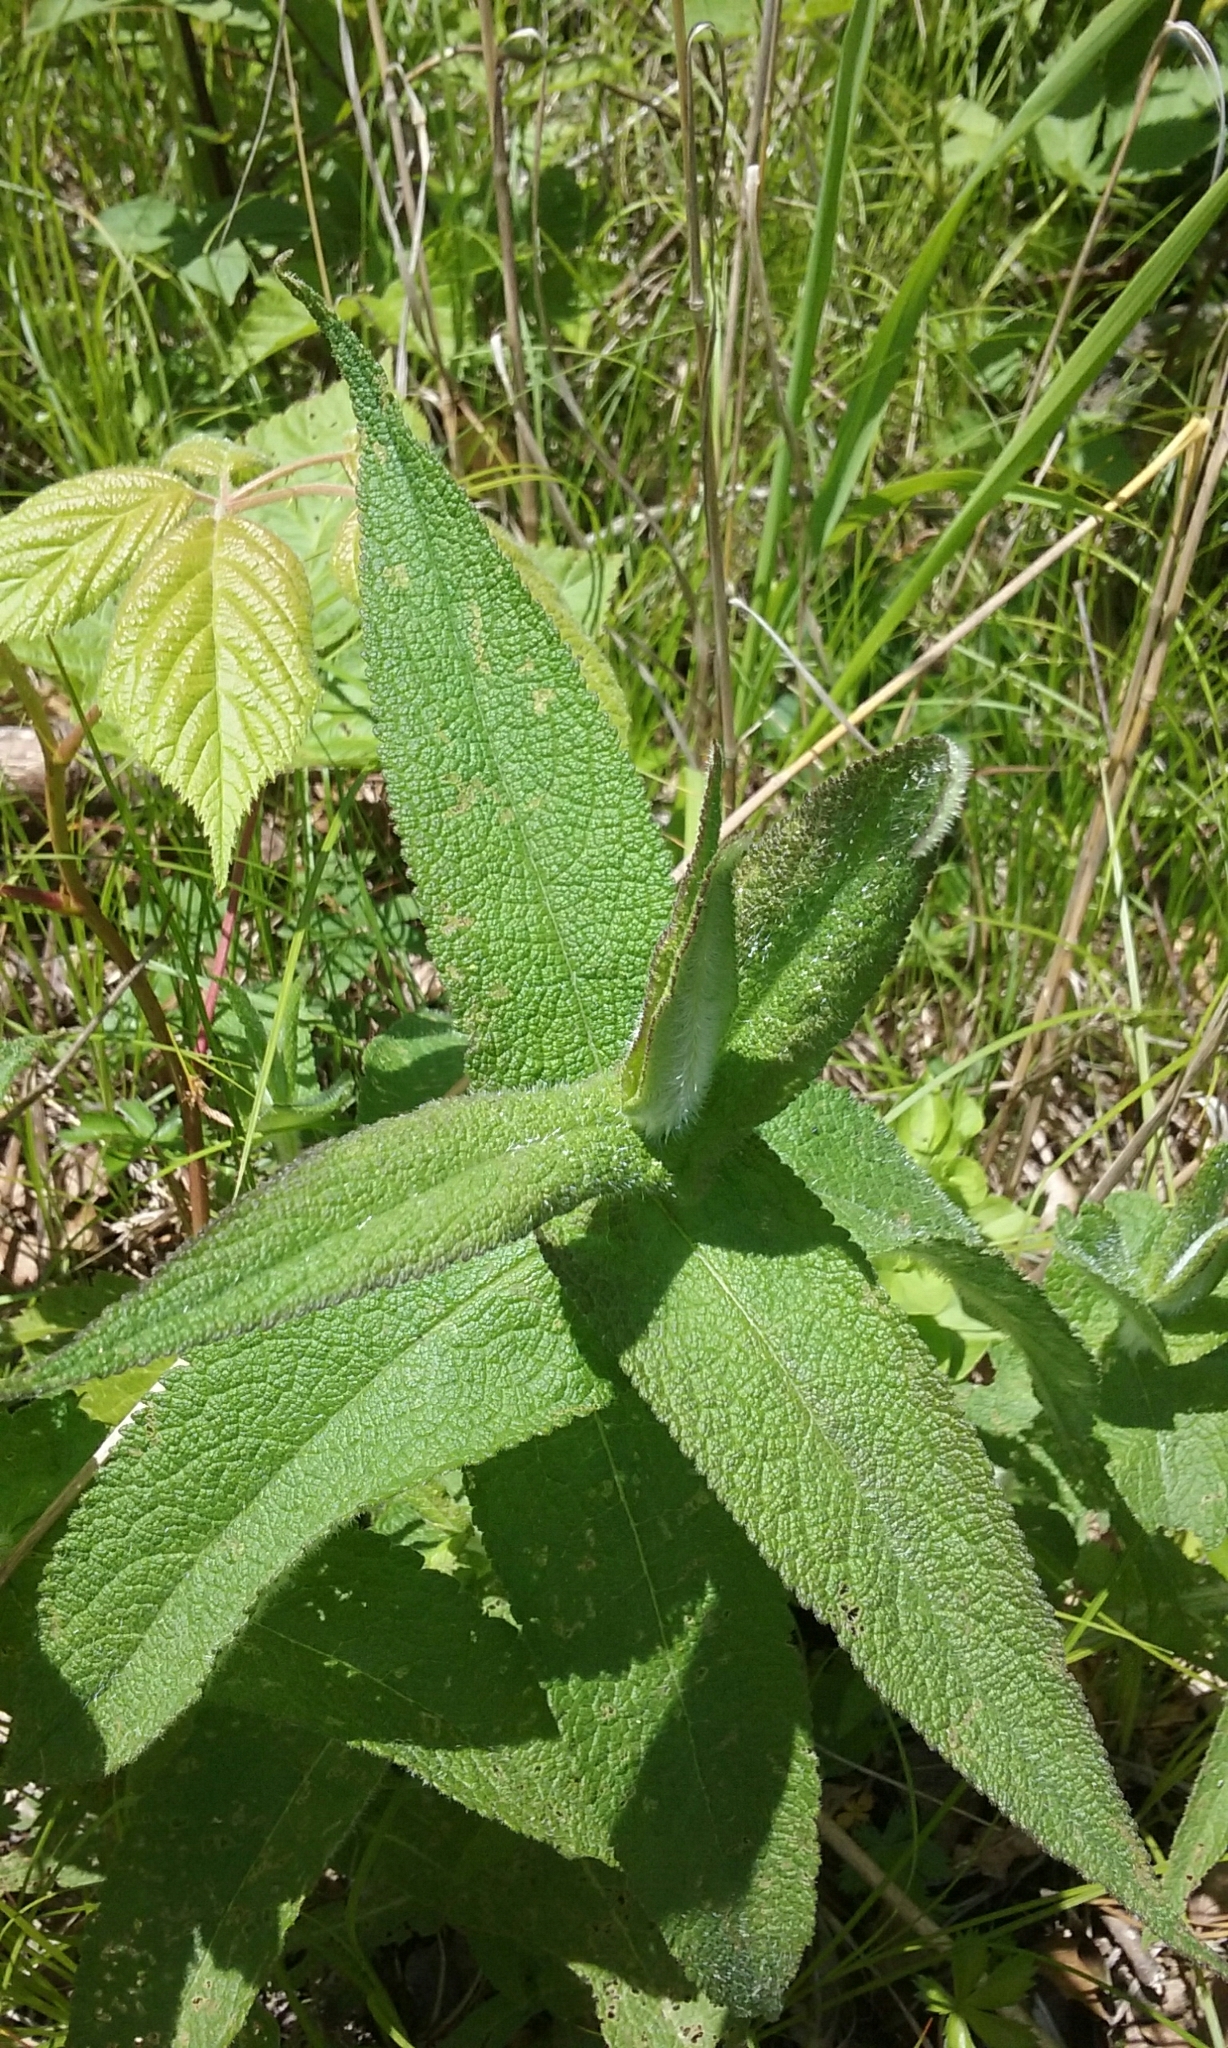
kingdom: Plantae
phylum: Tracheophyta
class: Magnoliopsida
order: Asterales
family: Asteraceae
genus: Eupatorium
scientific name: Eupatorium perfoliatum
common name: Boneset
